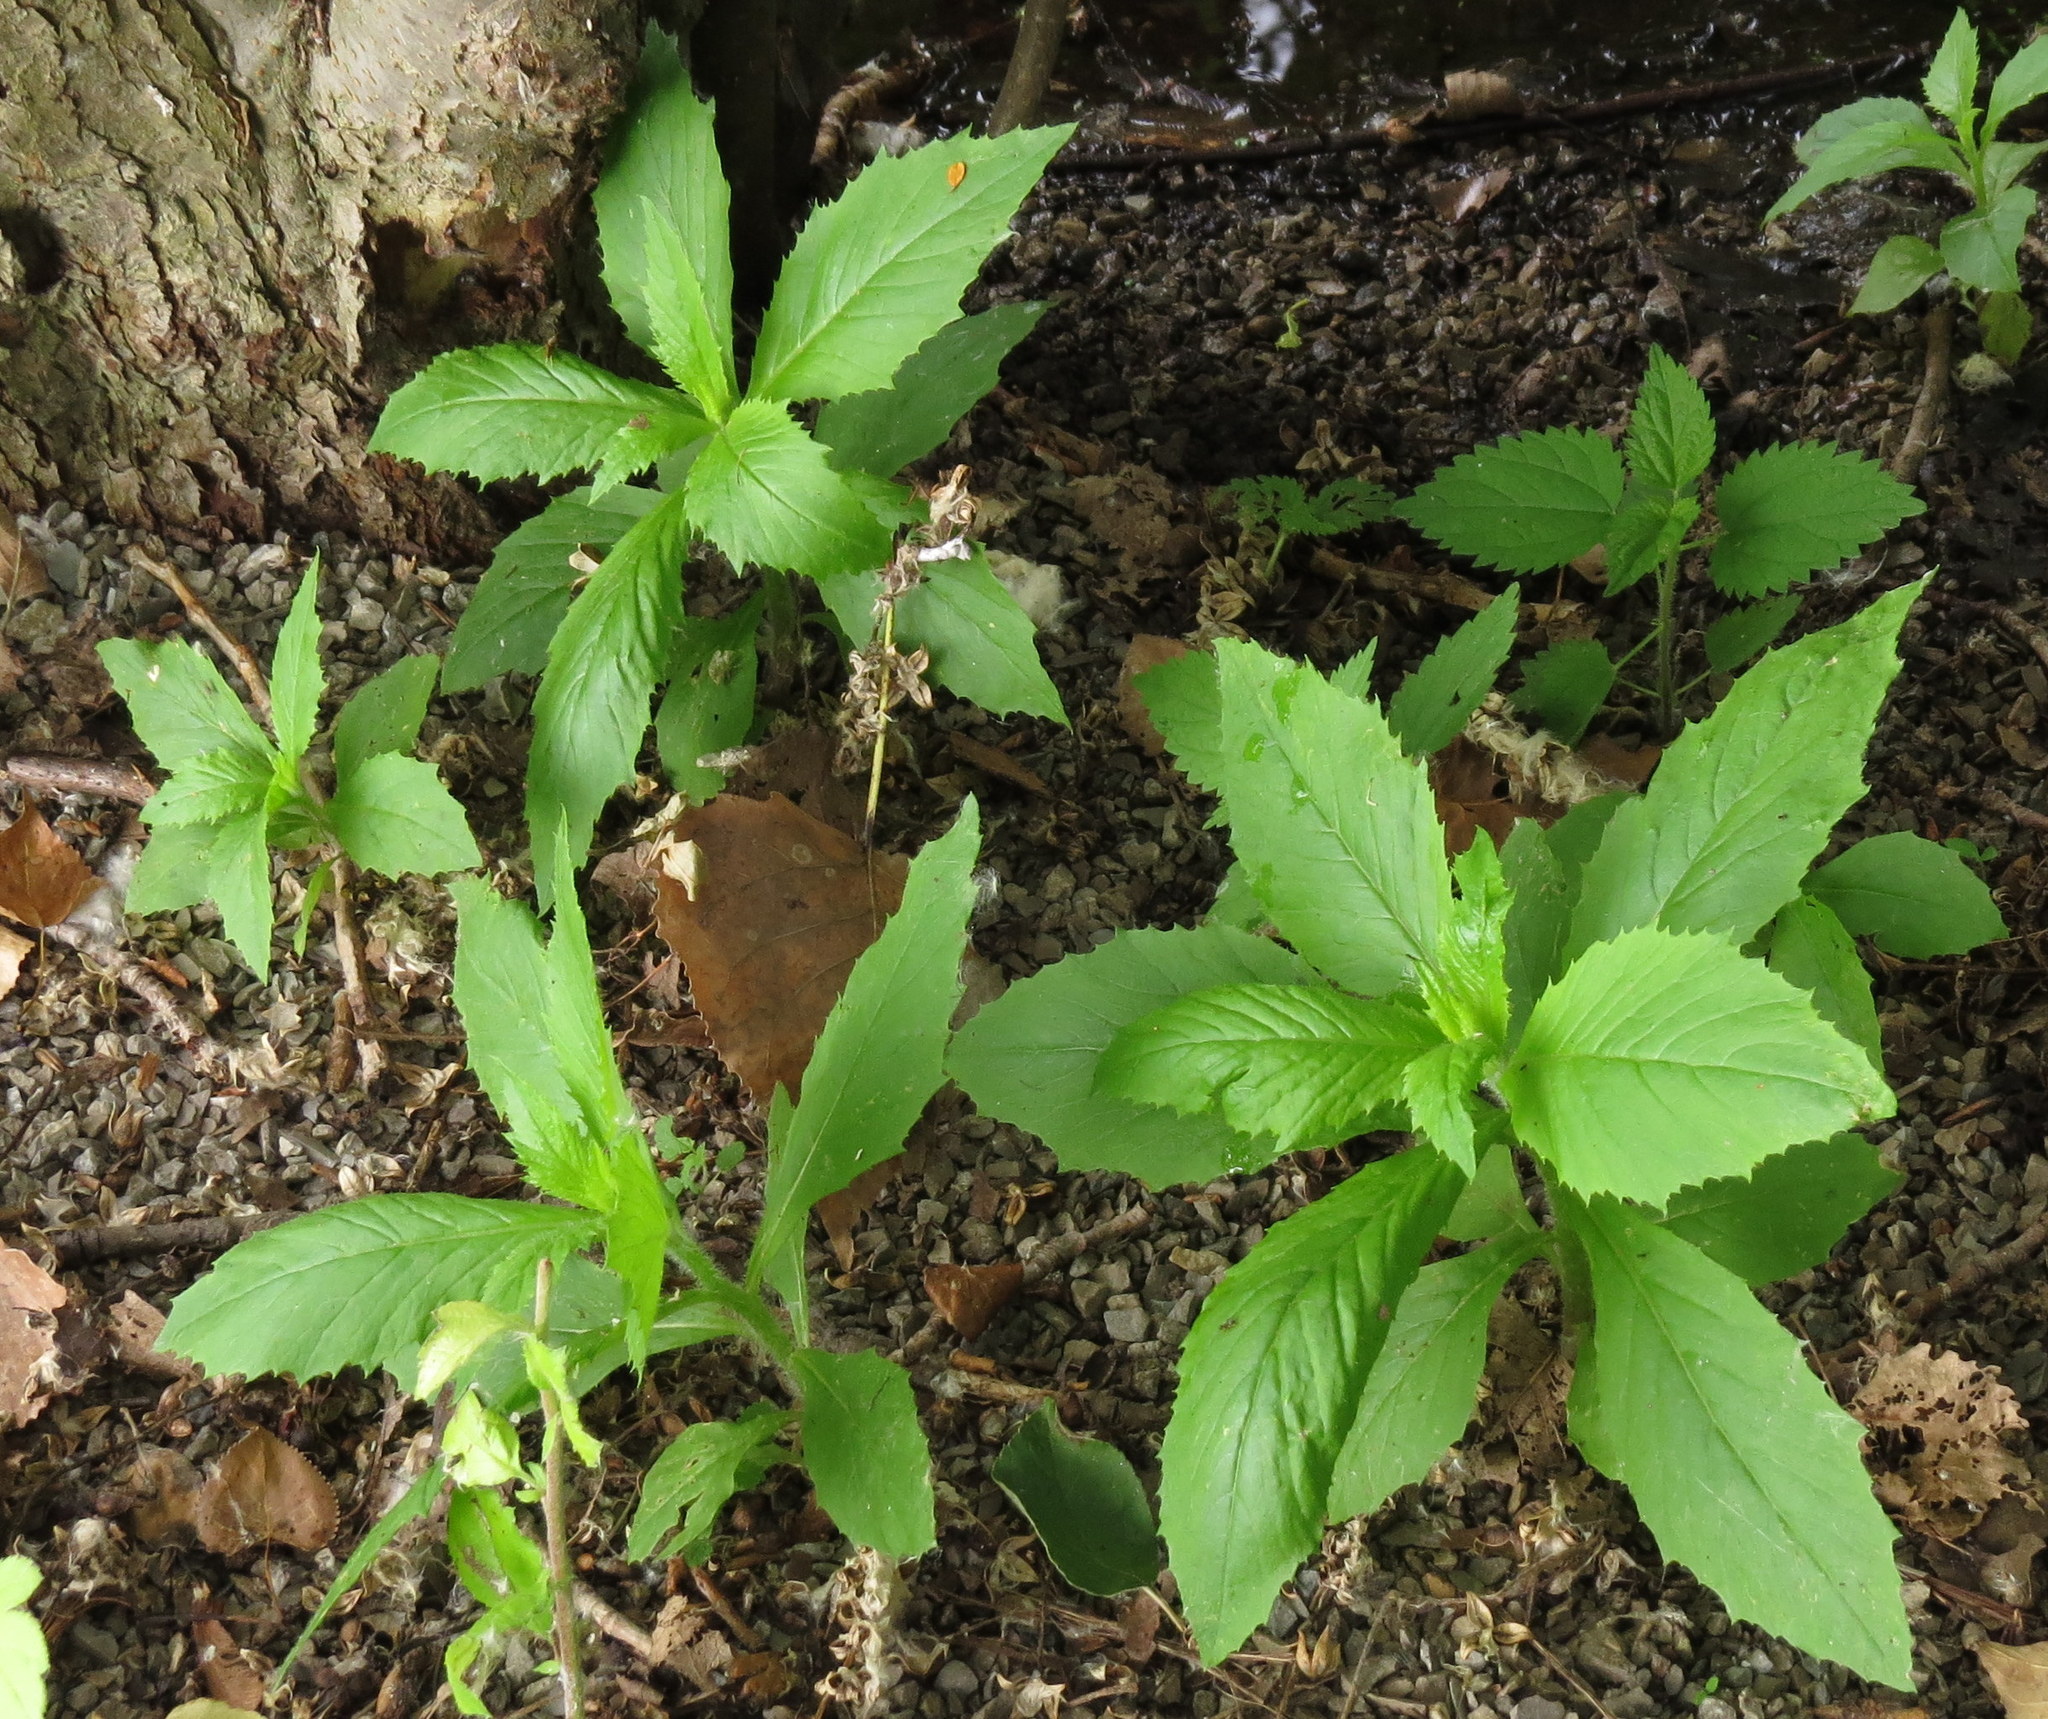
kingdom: Plantae
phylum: Tracheophyta
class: Magnoliopsida
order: Asterales
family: Asteraceae
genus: Erechtites
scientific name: Erechtites hieraciifolius
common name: American burnweed
